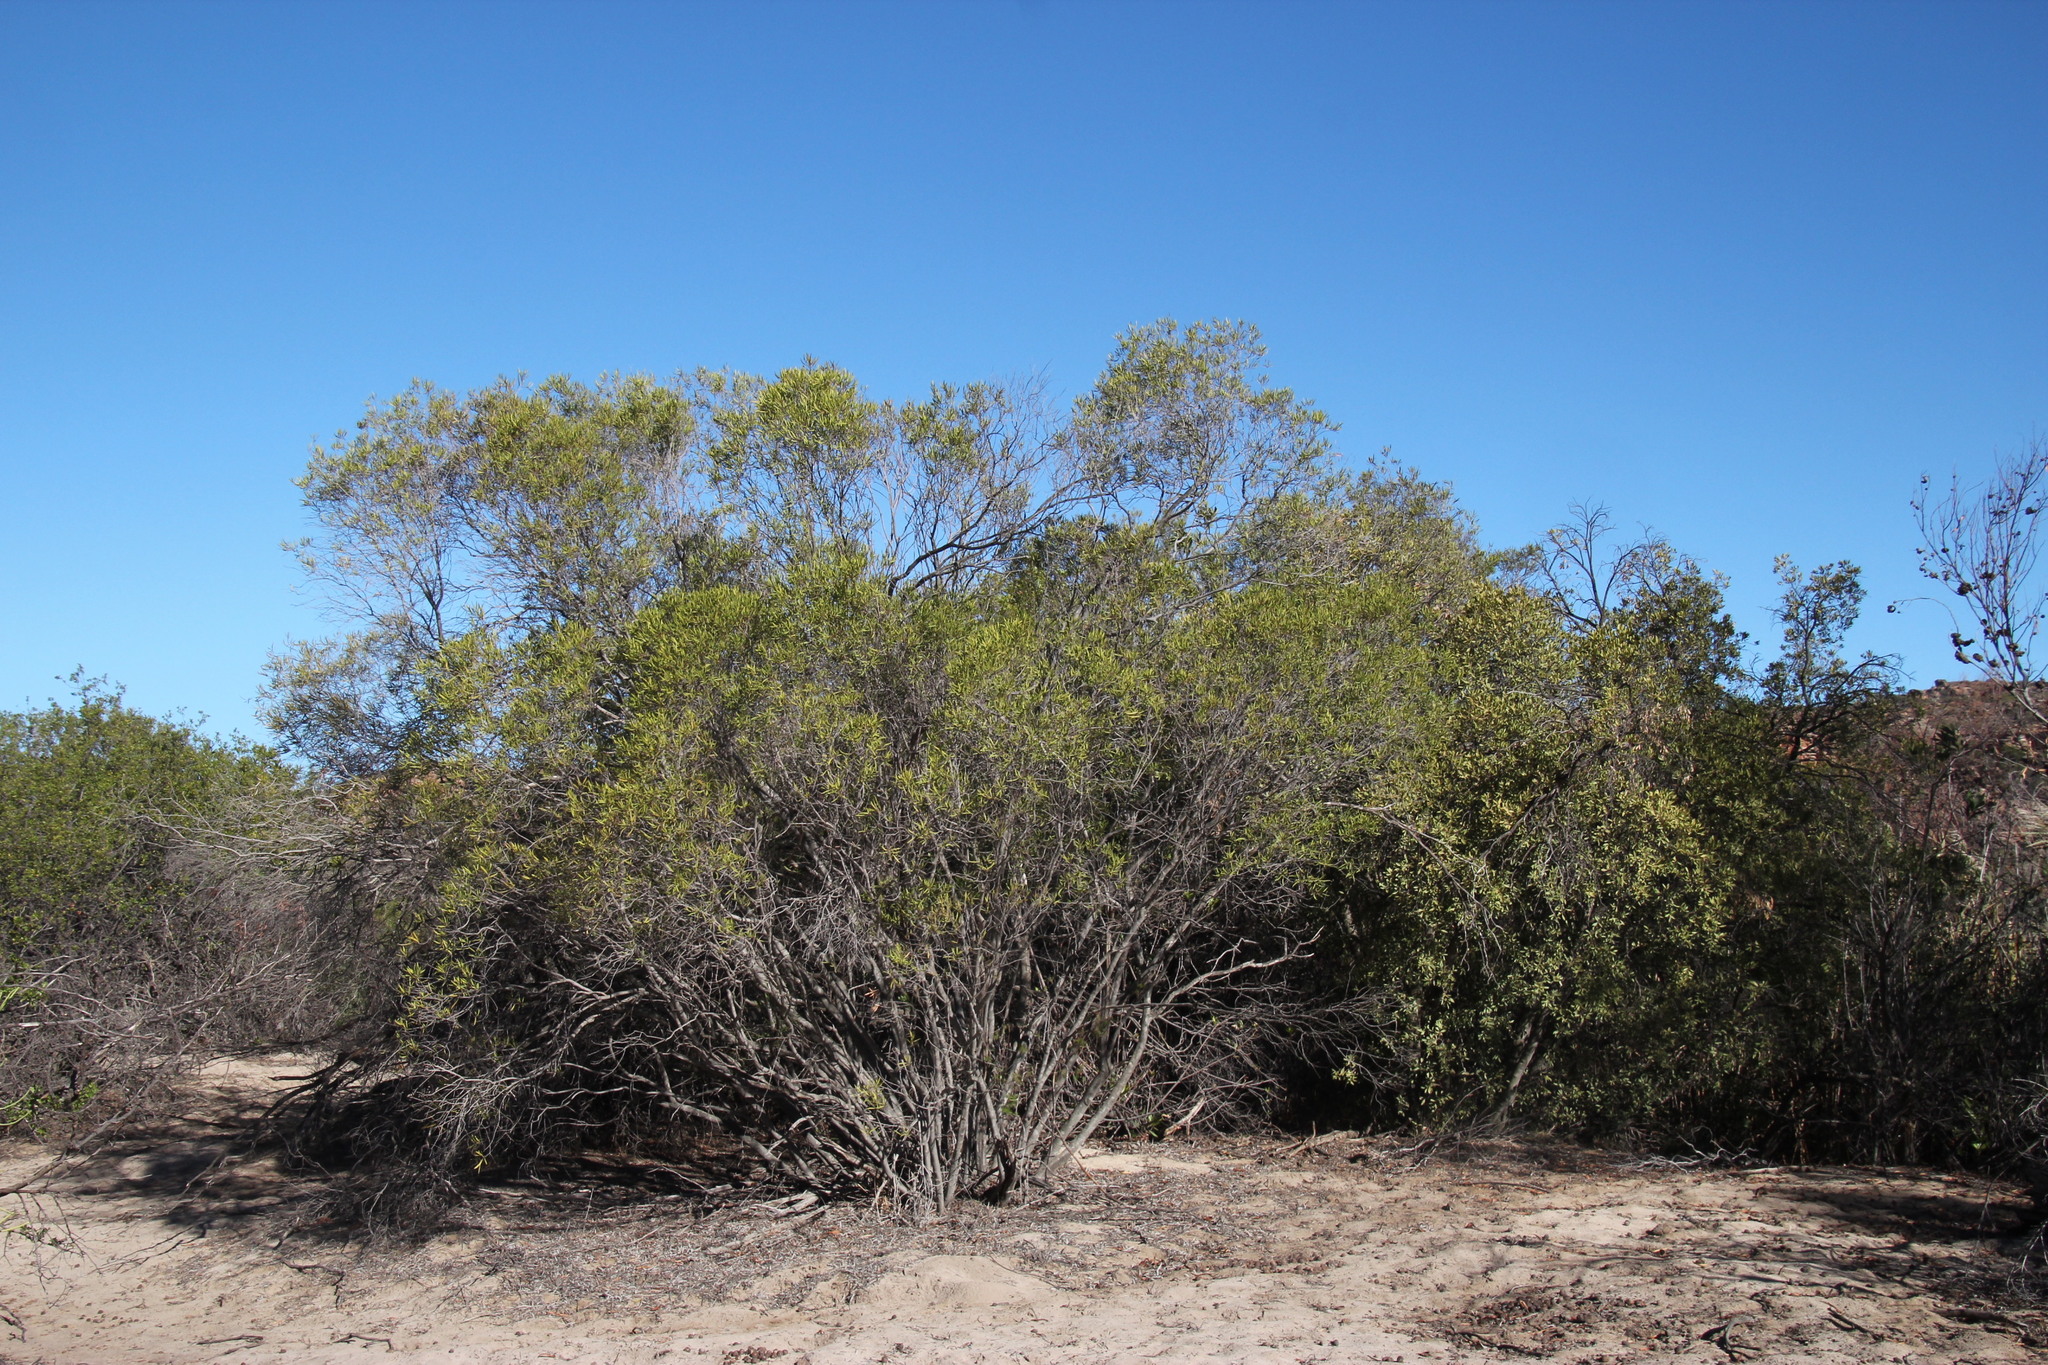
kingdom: Plantae
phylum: Tracheophyta
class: Magnoliopsida
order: Ericales
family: Ebenaceae
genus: Euclea
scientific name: Euclea linearis
